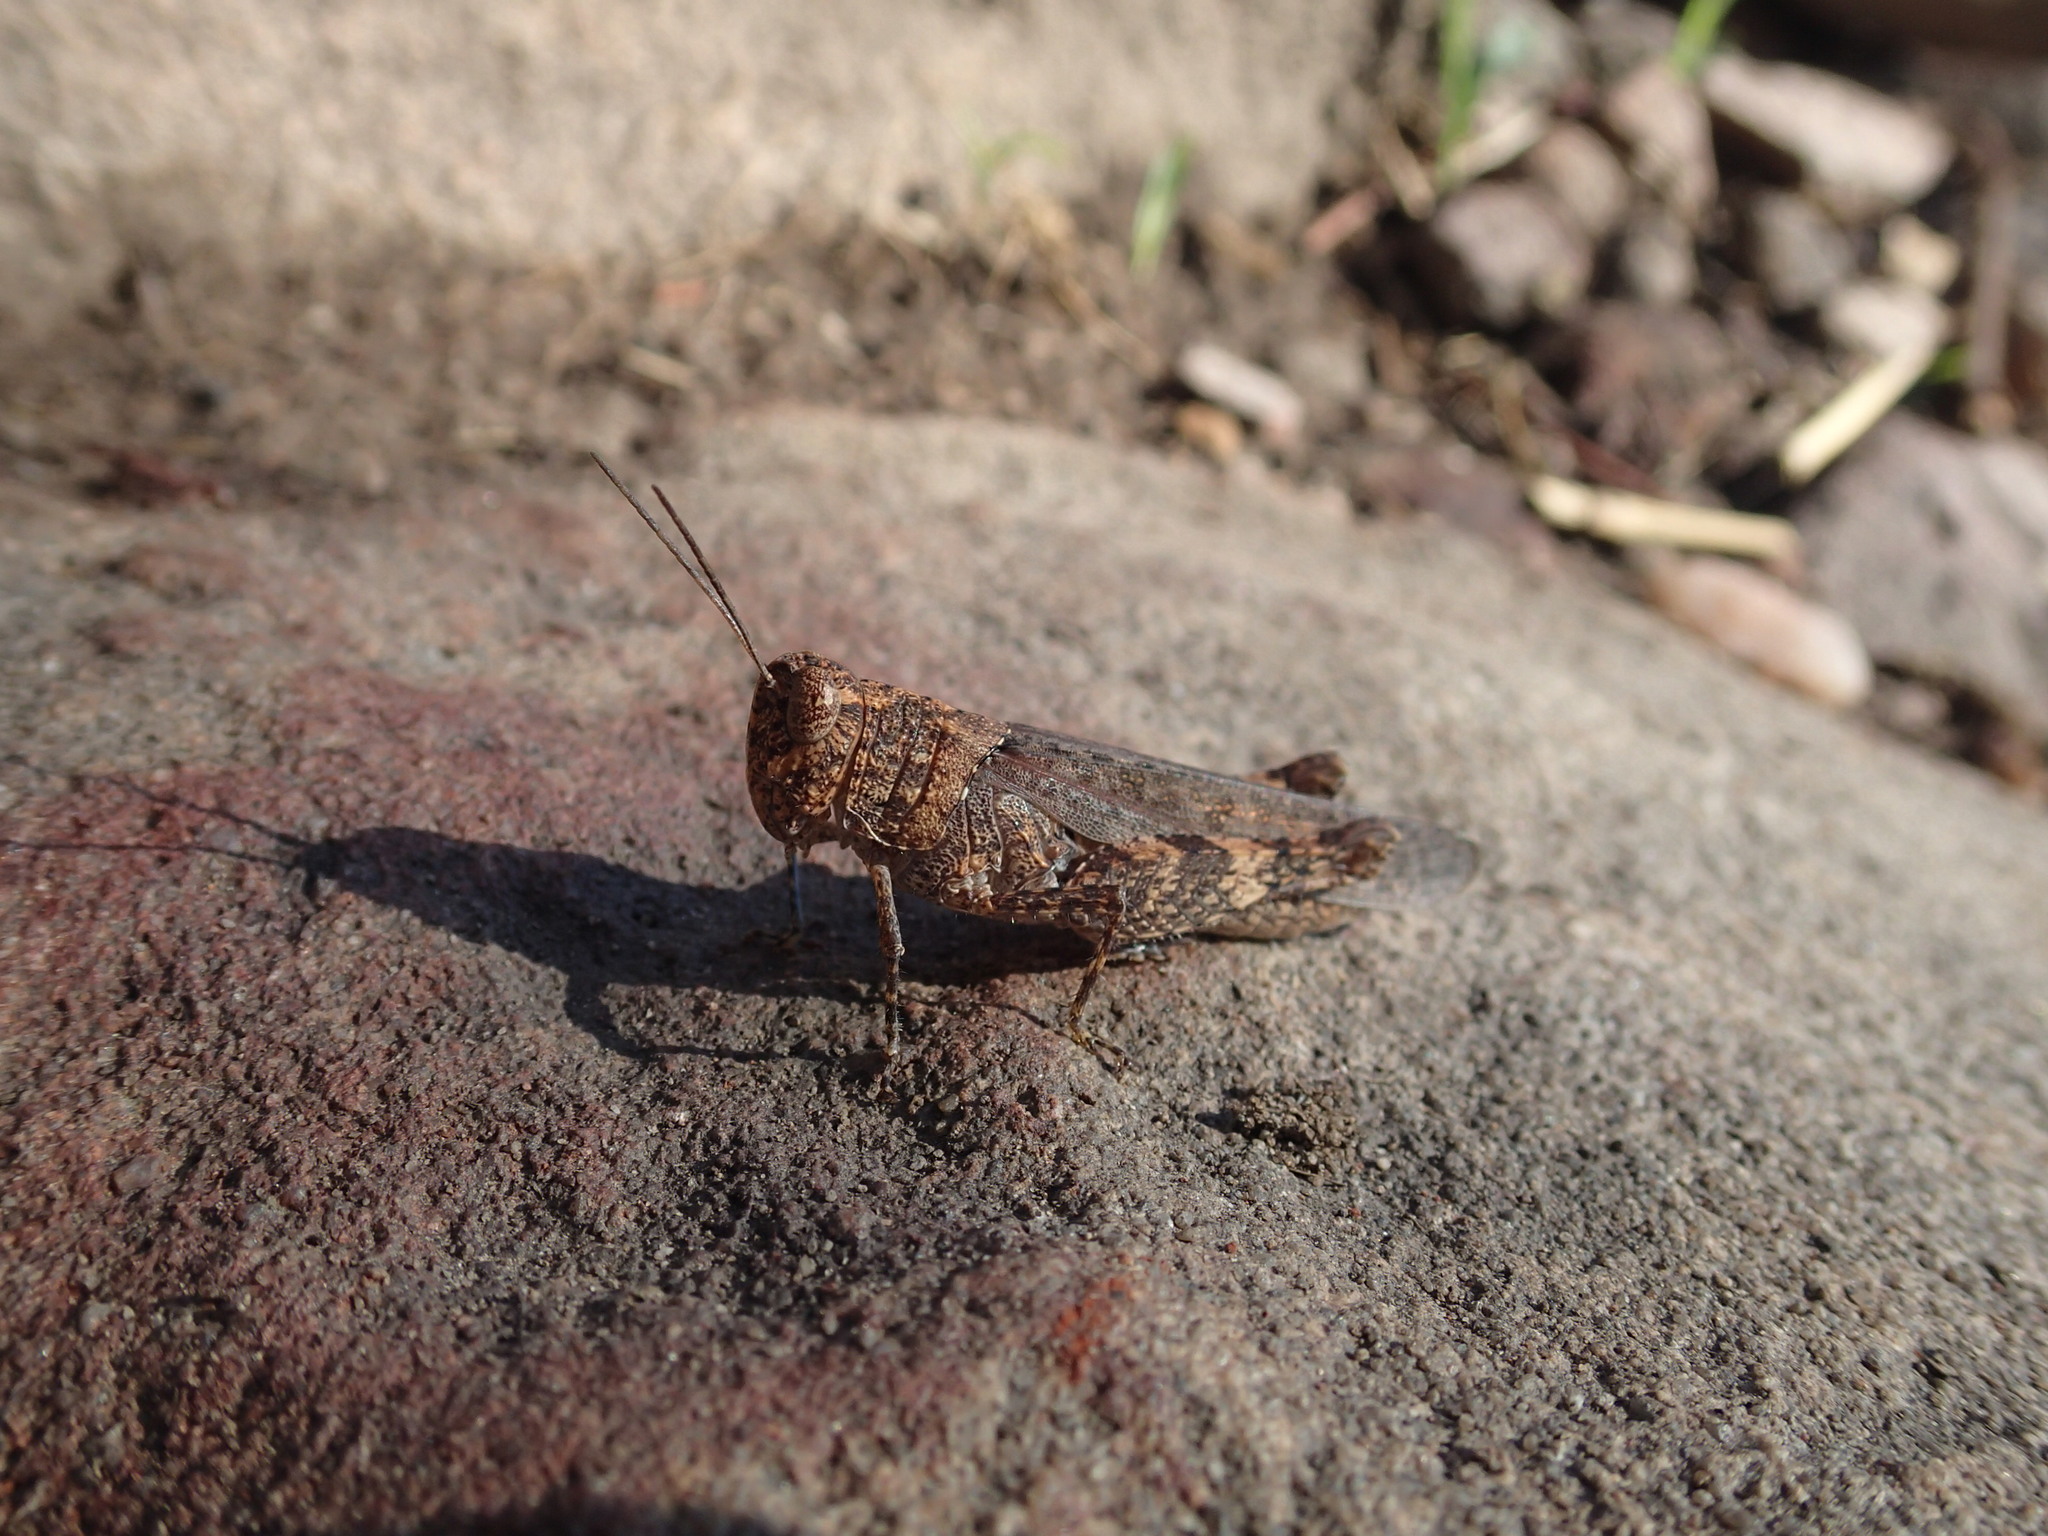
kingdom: Animalia
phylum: Arthropoda
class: Insecta
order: Orthoptera
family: Acrididae
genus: Desertaria
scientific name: Desertaria flamma
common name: Northern ungee-gungee
